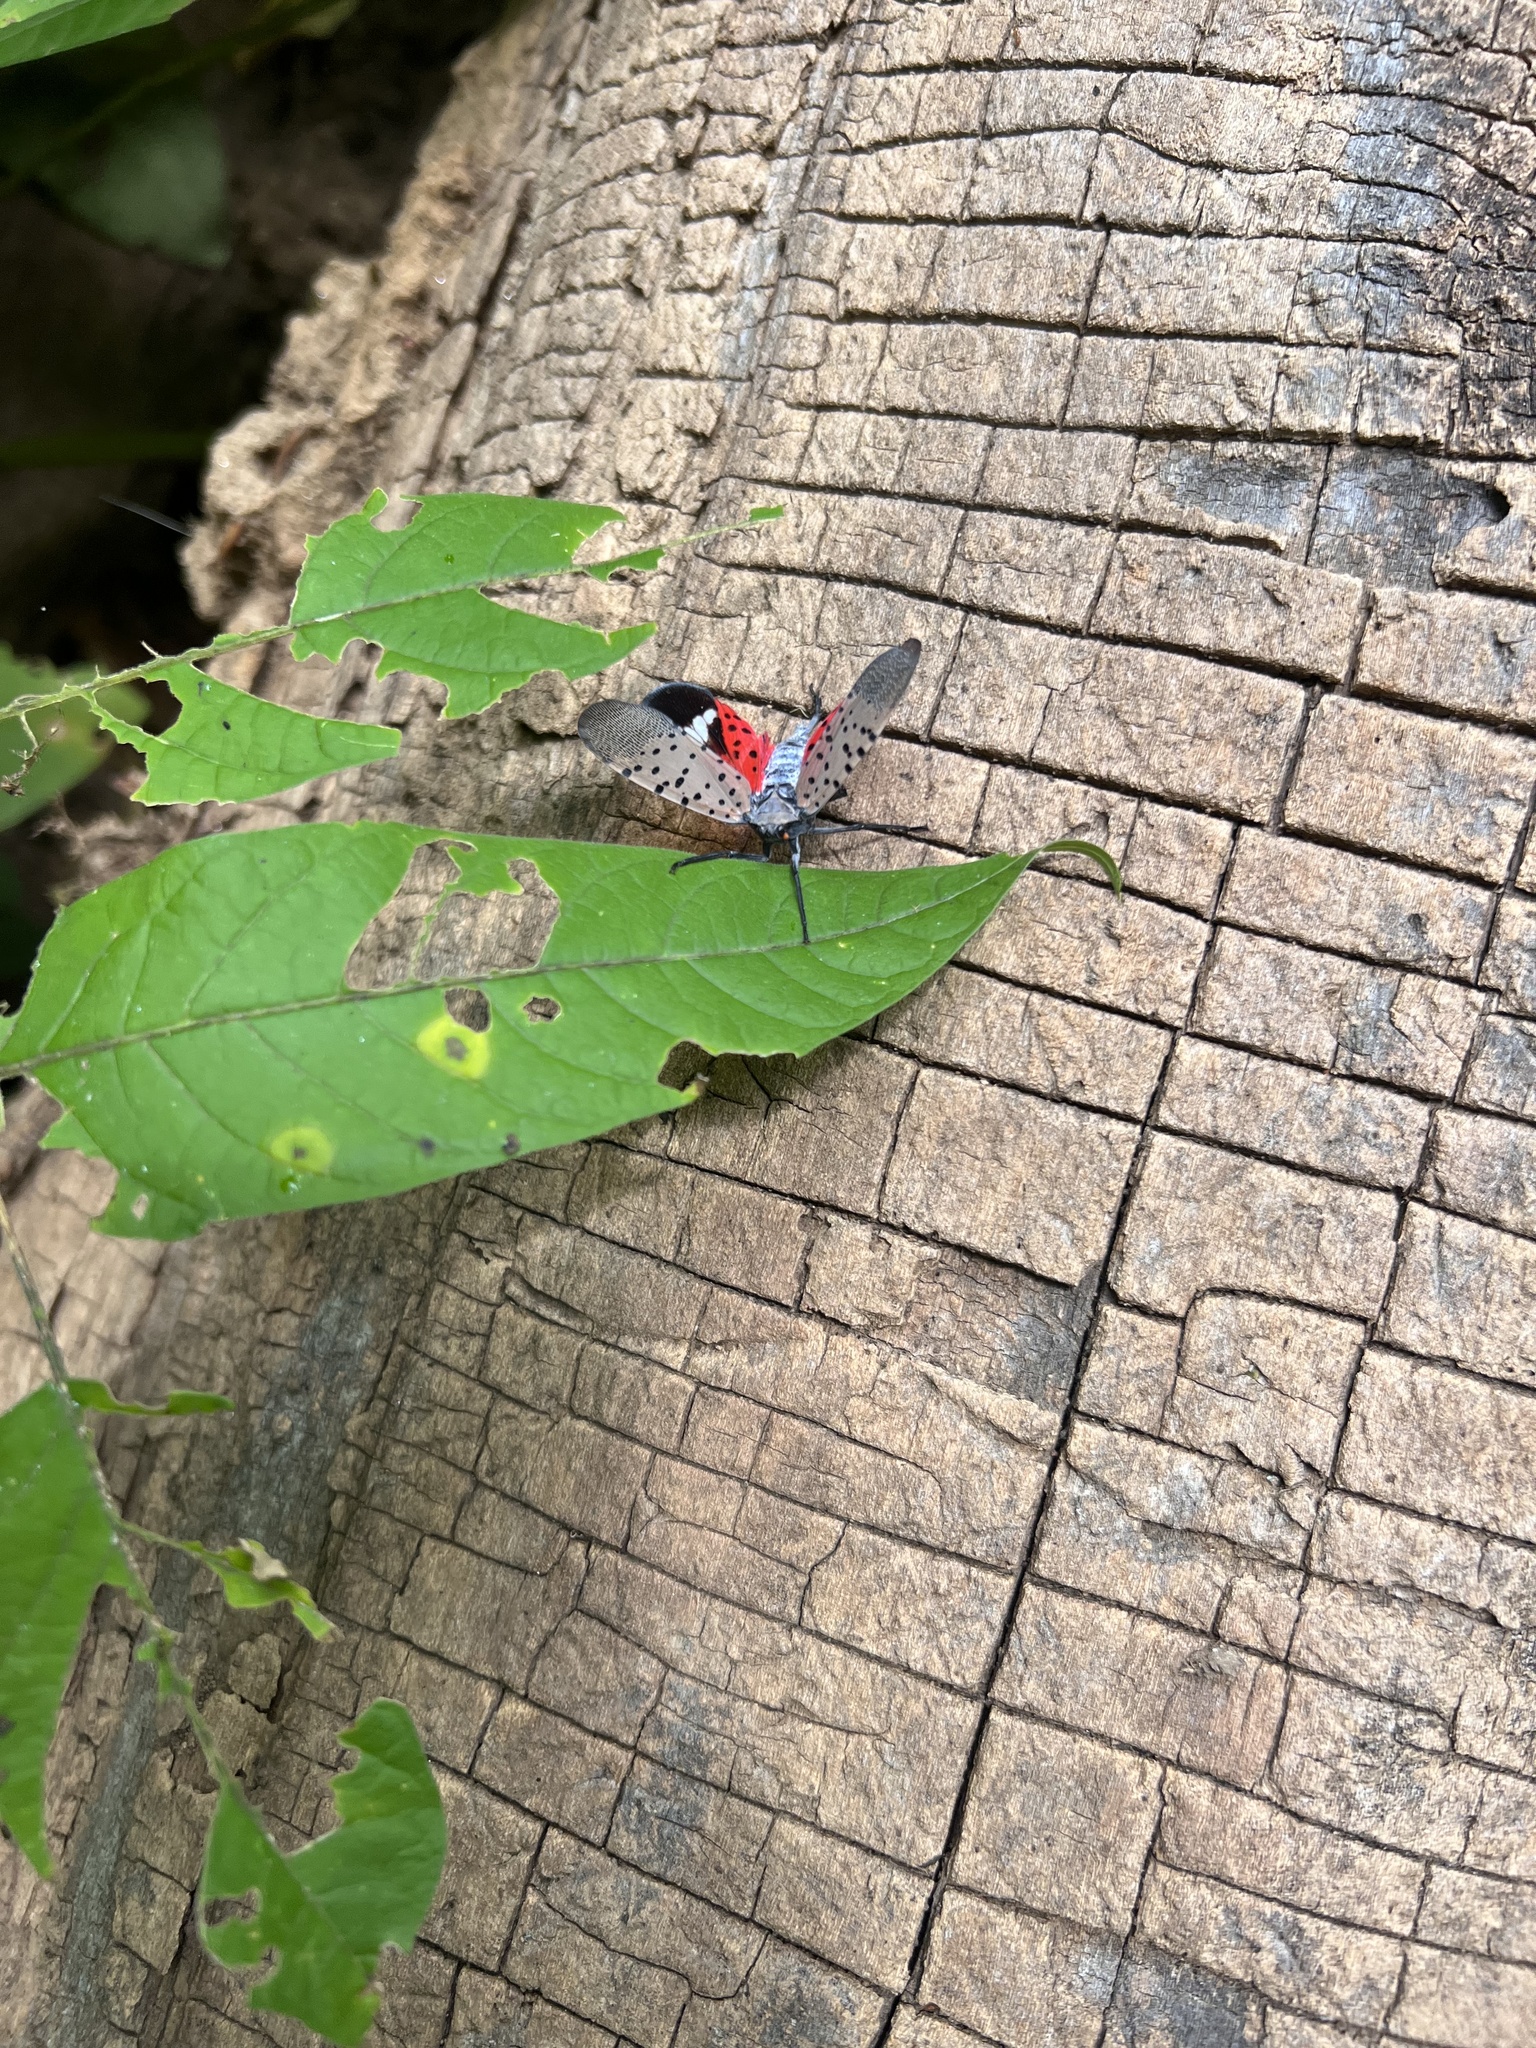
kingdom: Animalia
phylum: Arthropoda
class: Insecta
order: Hemiptera
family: Fulgoridae
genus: Lycorma
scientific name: Lycorma delicatula
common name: Spotted lanternfly
